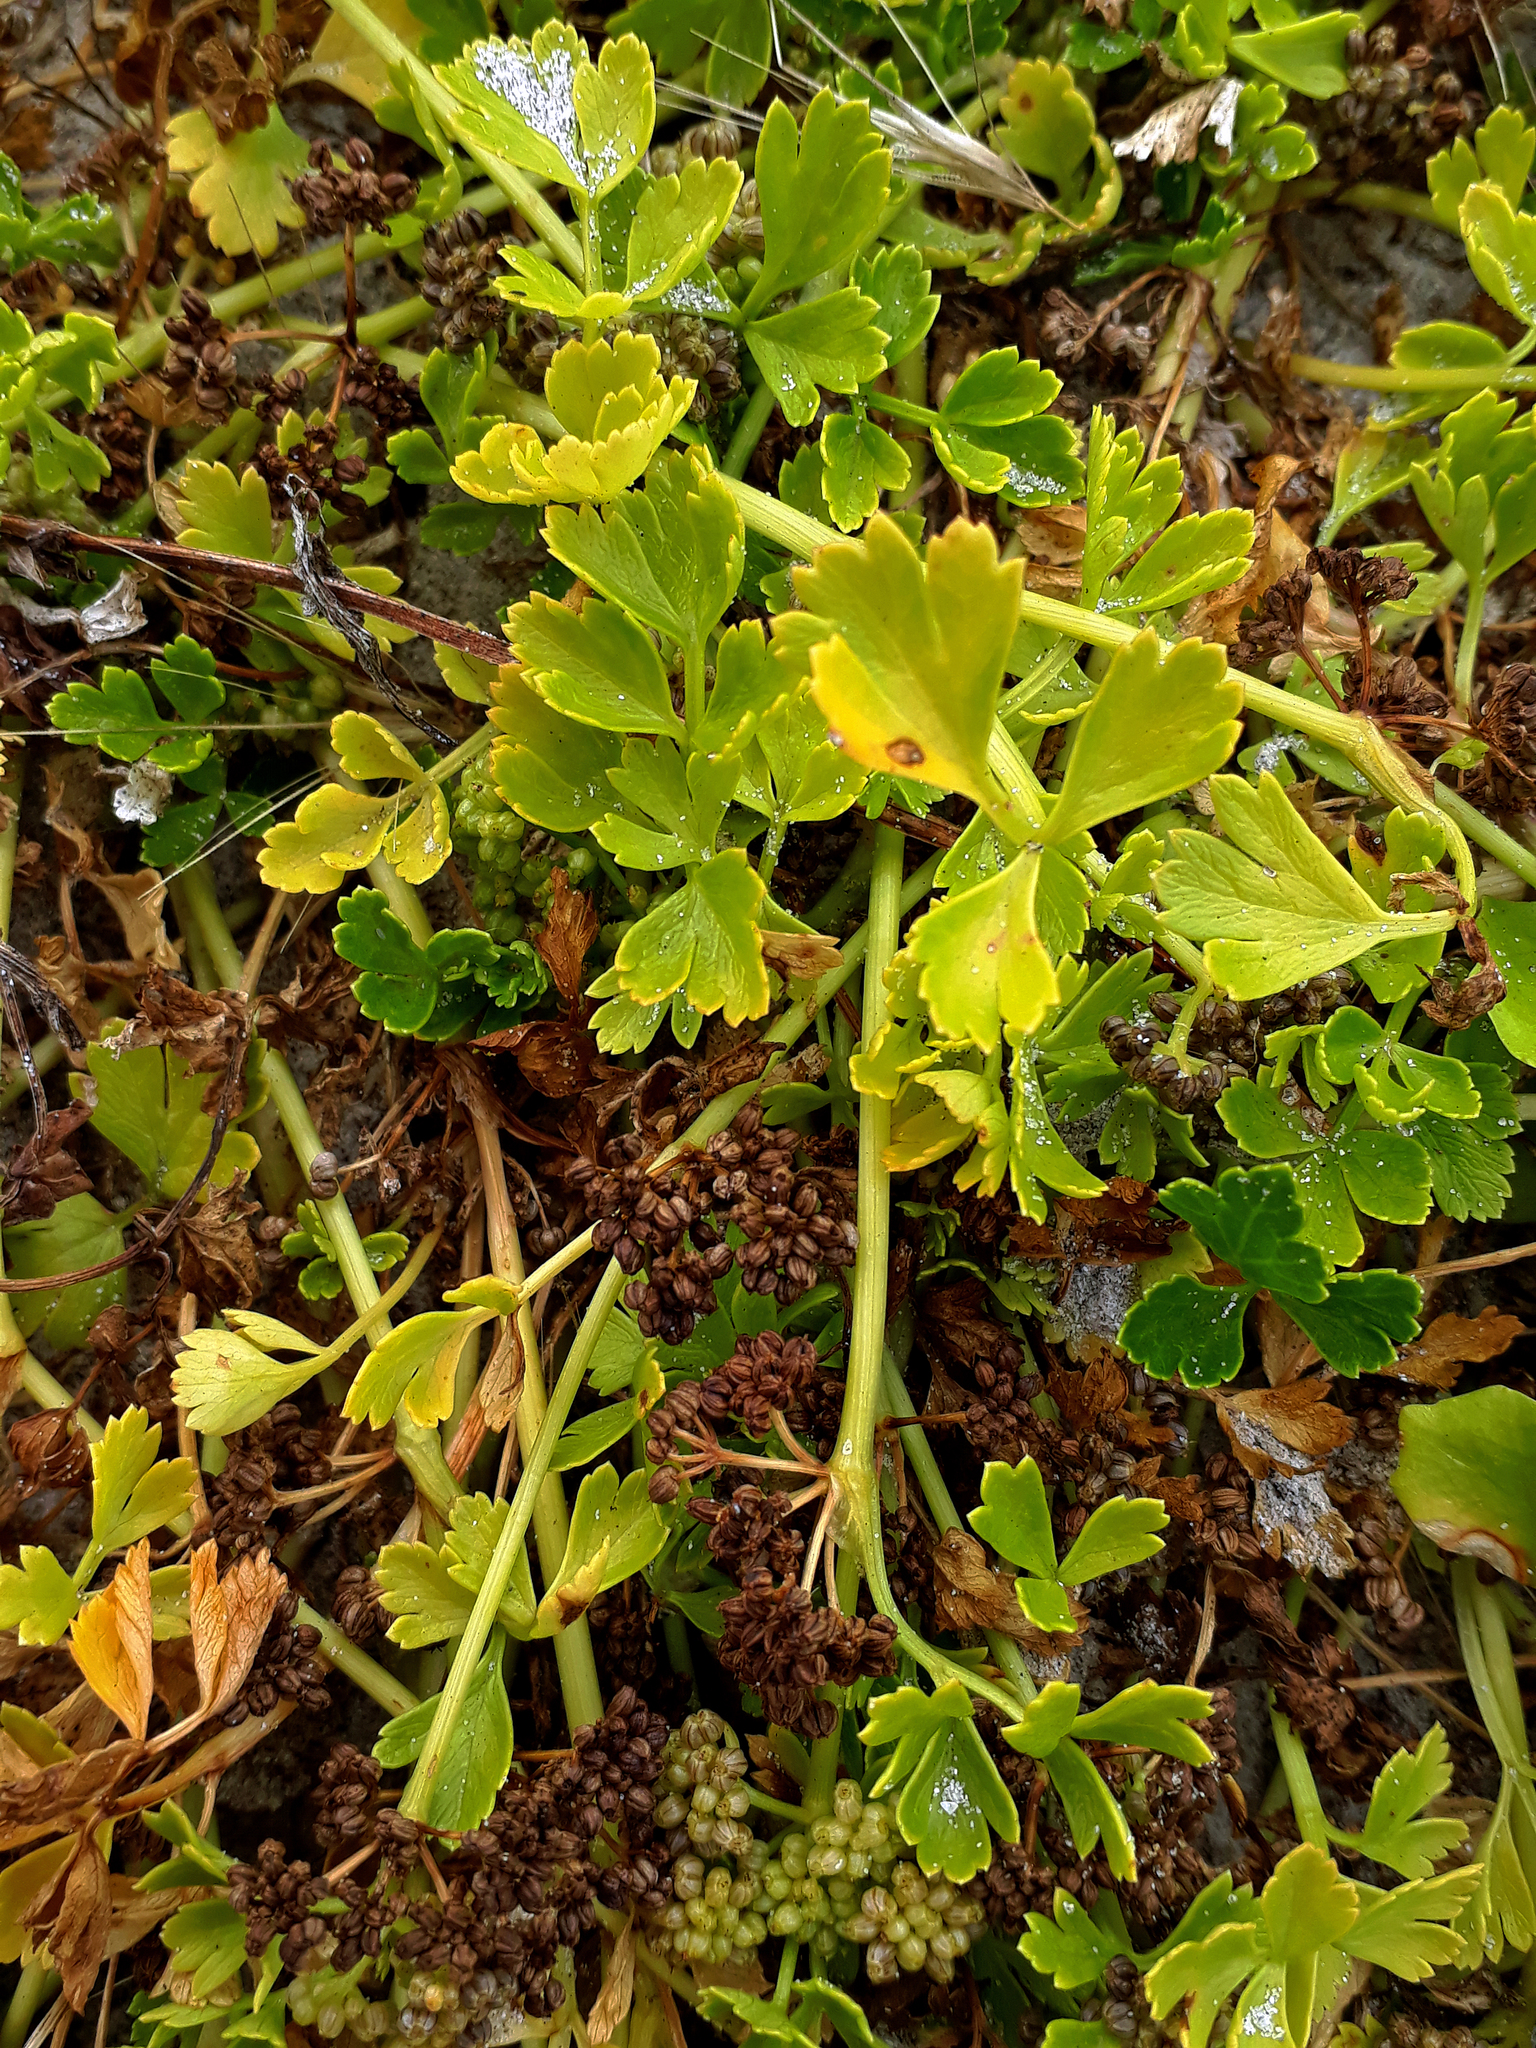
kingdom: Plantae
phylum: Tracheophyta
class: Magnoliopsida
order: Apiales
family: Apiaceae
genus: Apium
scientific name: Apium prostratum
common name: Prostrate marshwort
